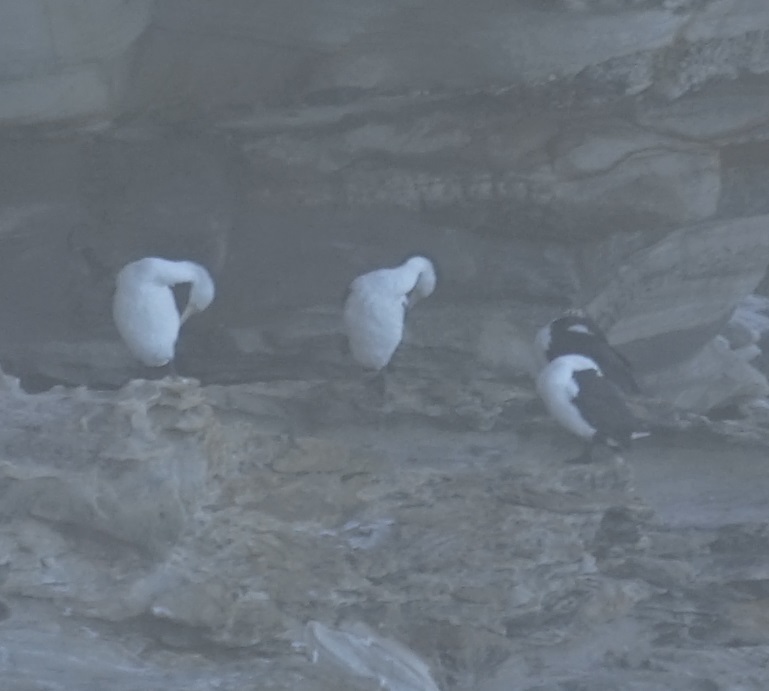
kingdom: Animalia
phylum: Chordata
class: Aves
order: Suliformes
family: Phalacrocoracidae
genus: Phalacrocorax
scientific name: Phalacrocorax varius
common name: Pied cormorant
